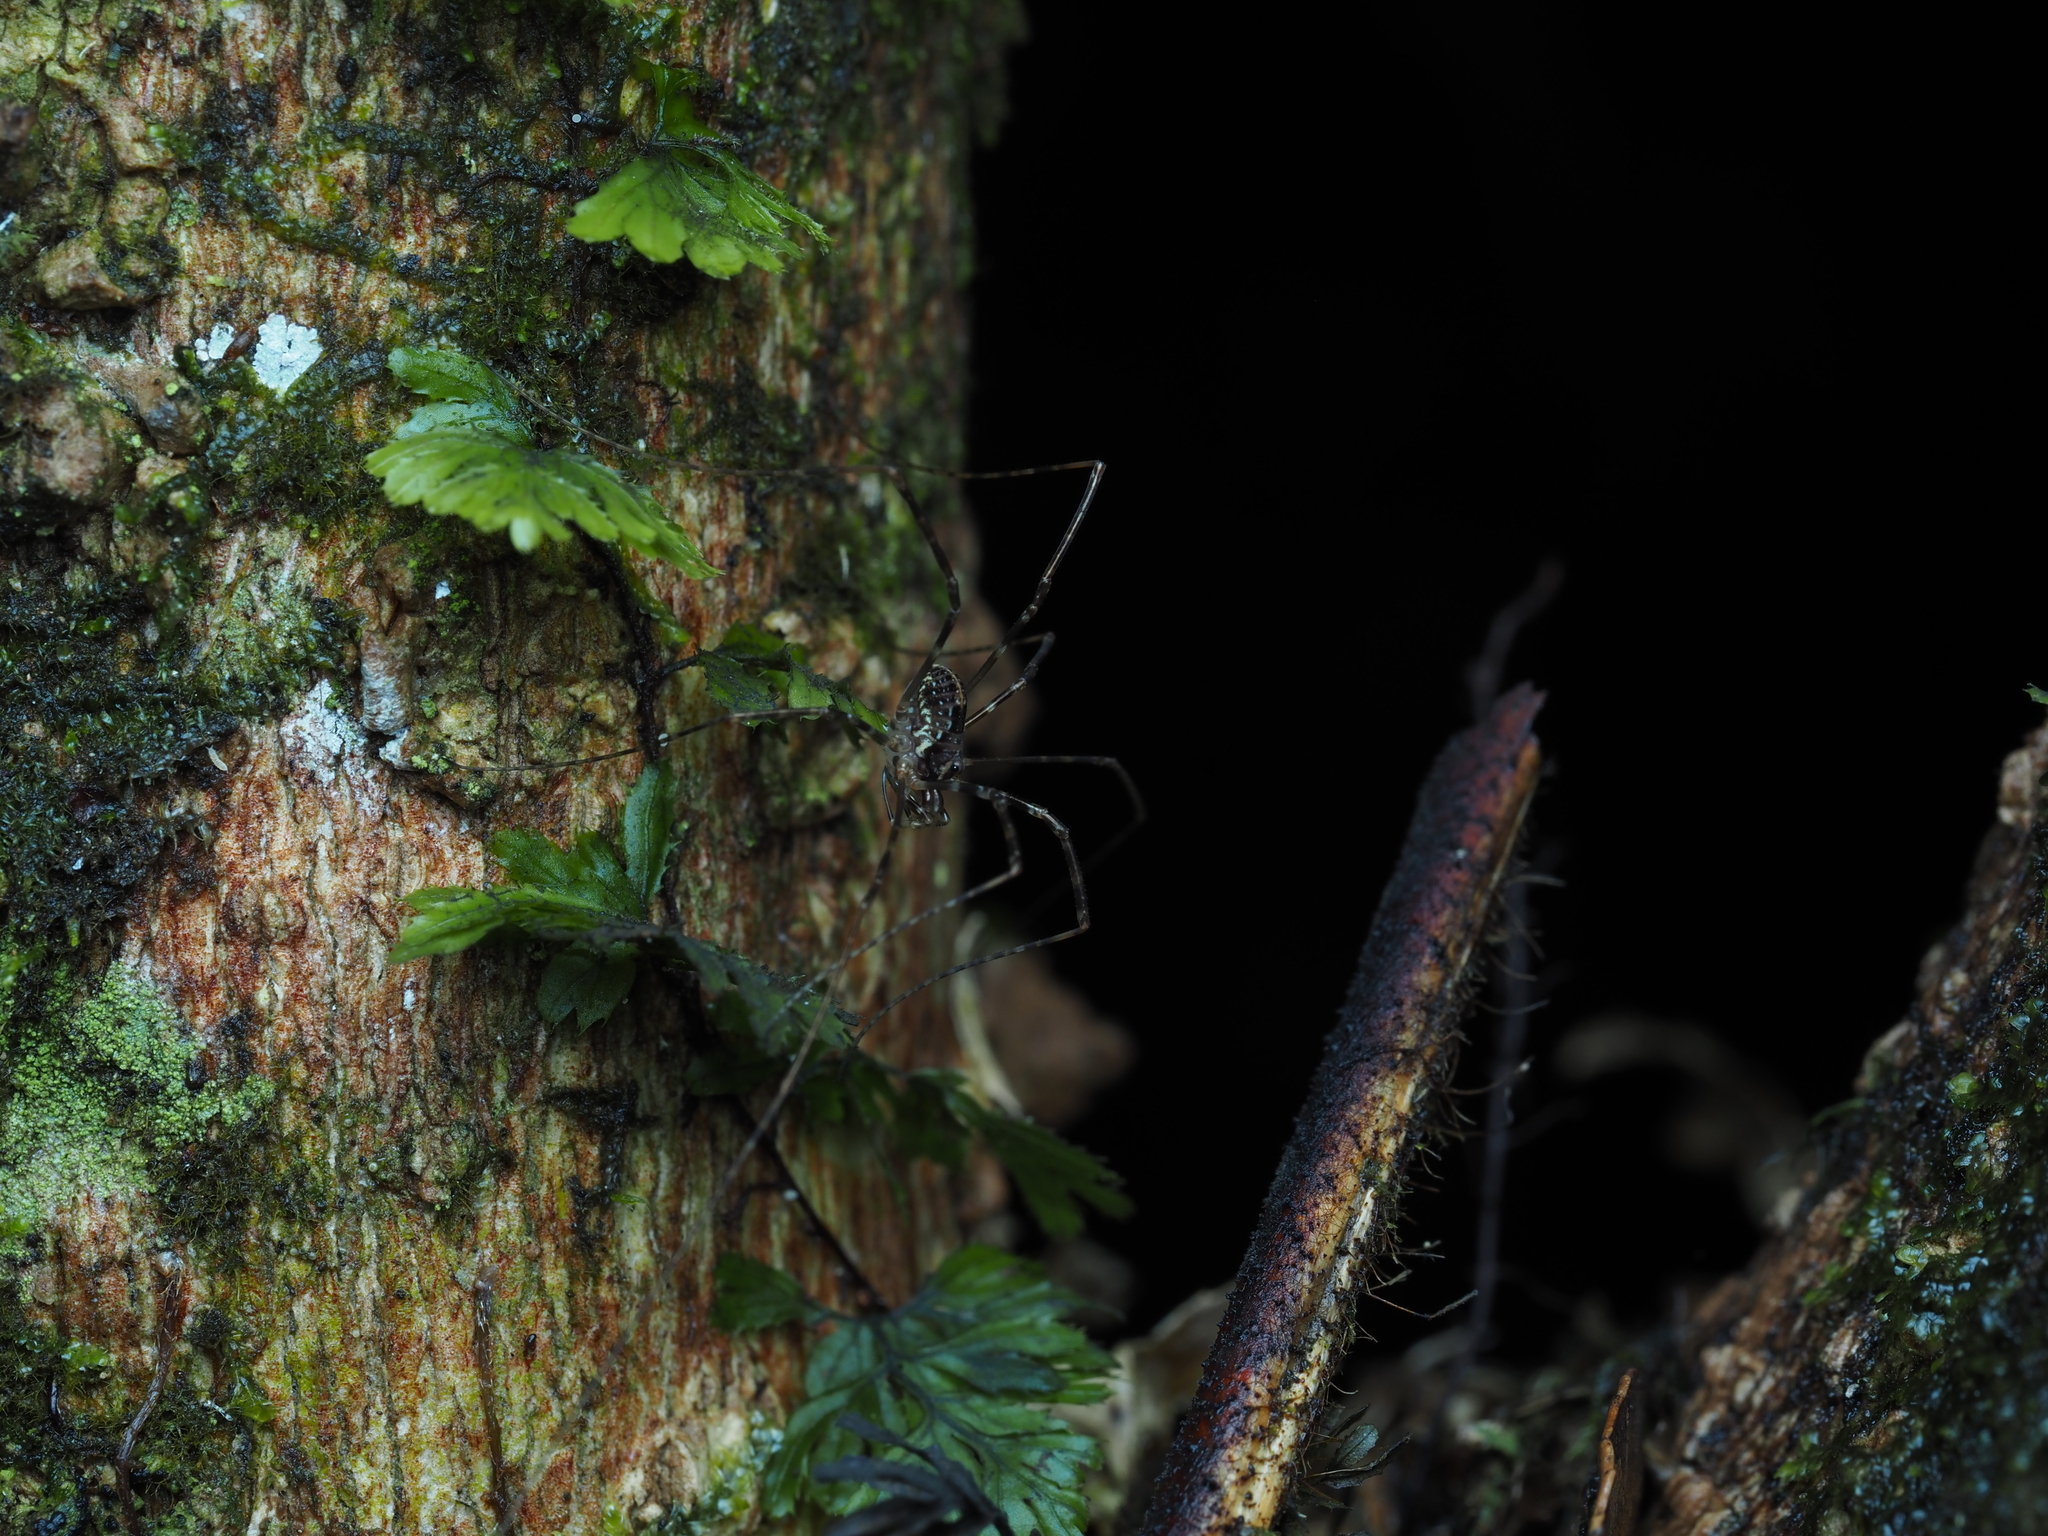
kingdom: Animalia
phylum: Arthropoda
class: Arachnida
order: Opiliones
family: Neopilionidae
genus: Forsteropsalis
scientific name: Forsteropsalis pureora
